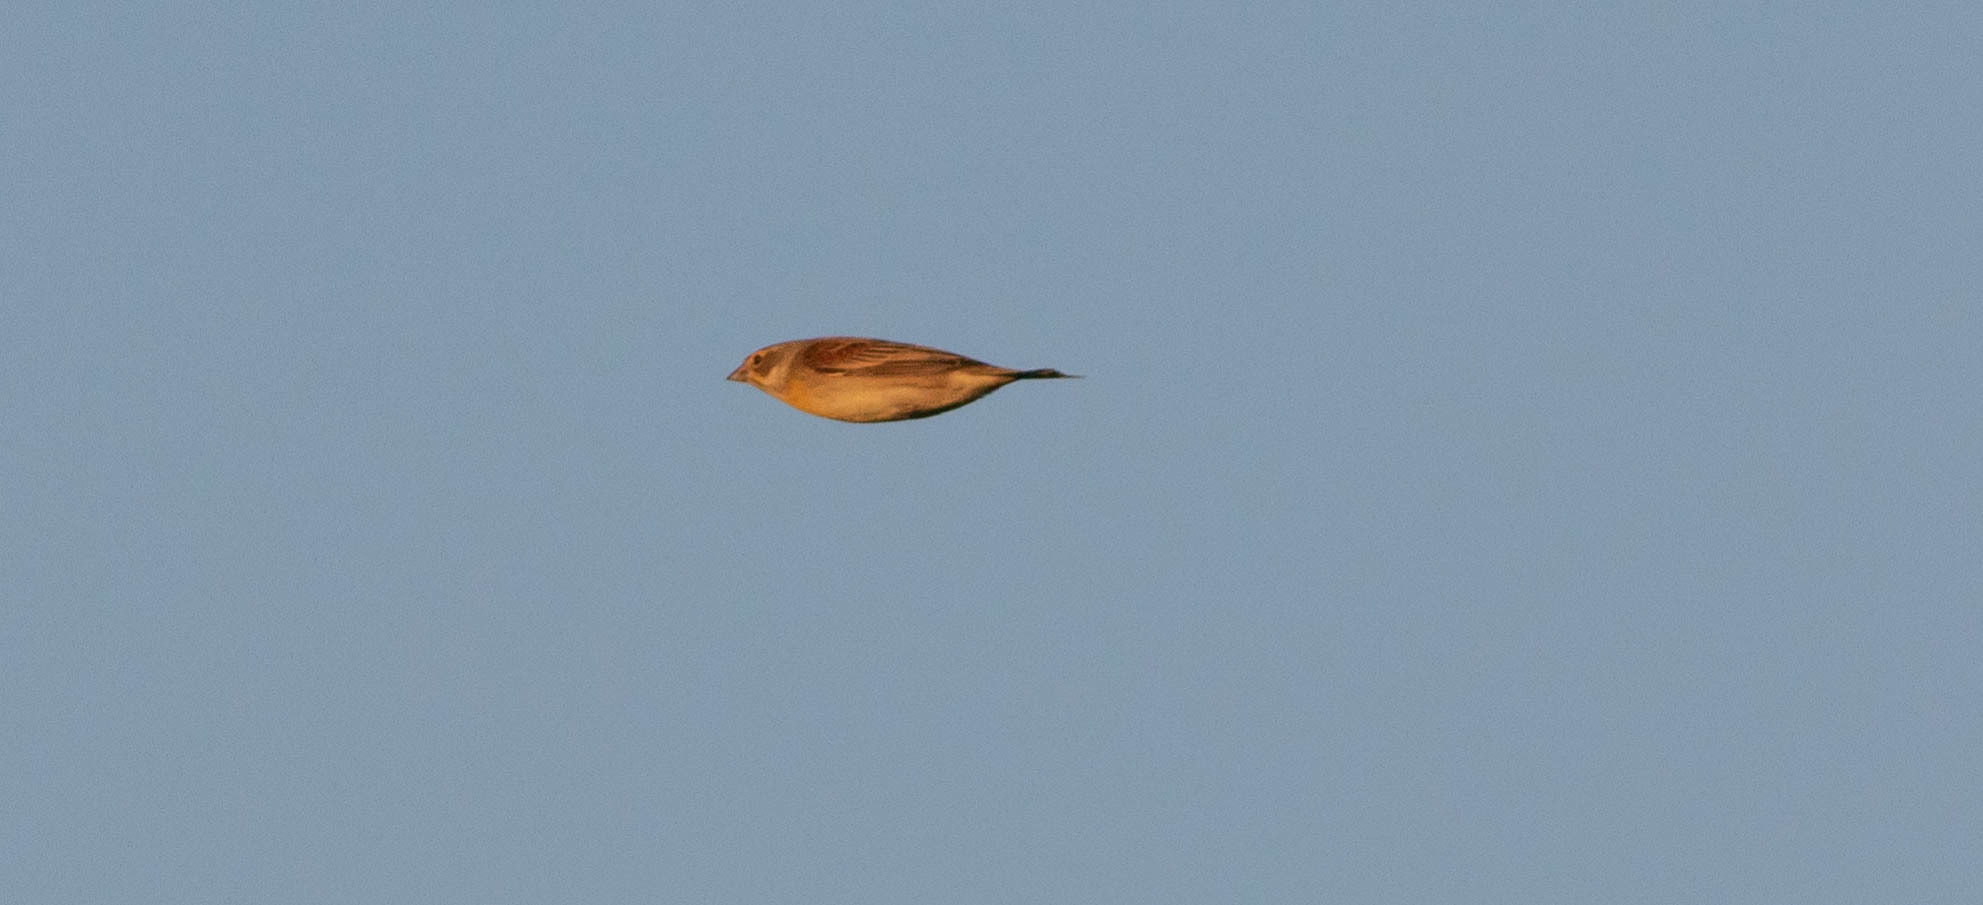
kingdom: Animalia
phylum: Chordata
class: Aves
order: Passeriformes
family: Cardinalidae
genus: Spiza
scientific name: Spiza americana
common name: Dickcissel
